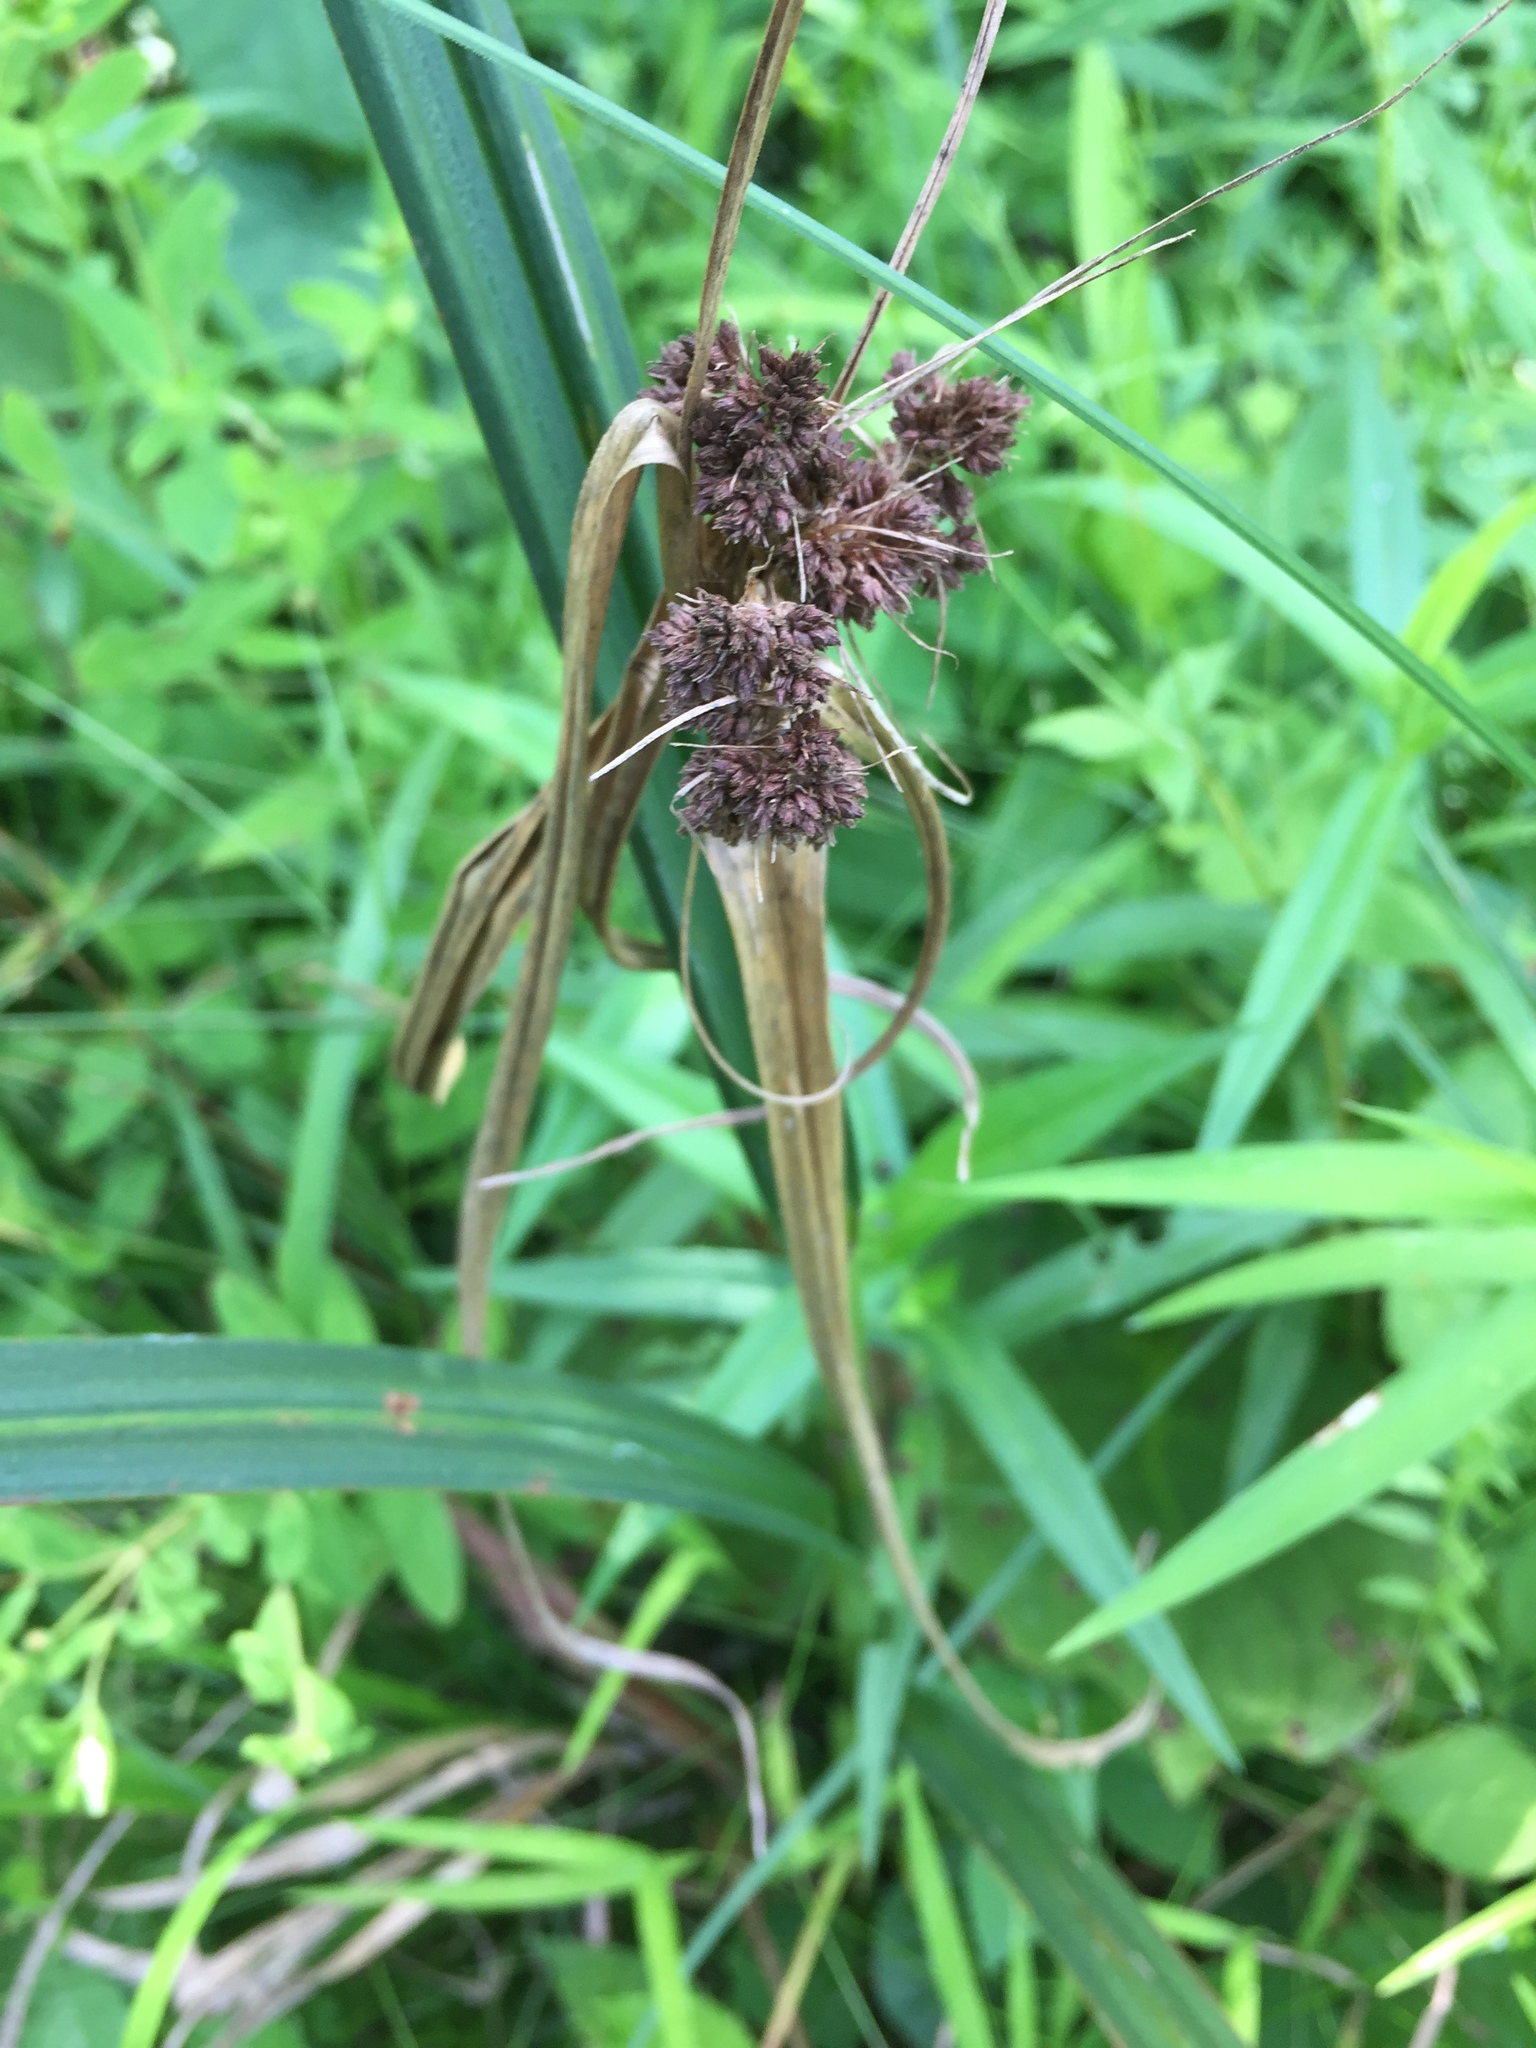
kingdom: Plantae
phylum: Tracheophyta
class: Liliopsida
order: Poales
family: Cyperaceae
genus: Scirpus
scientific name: Scirpus atrovirens
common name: Black bulrush
